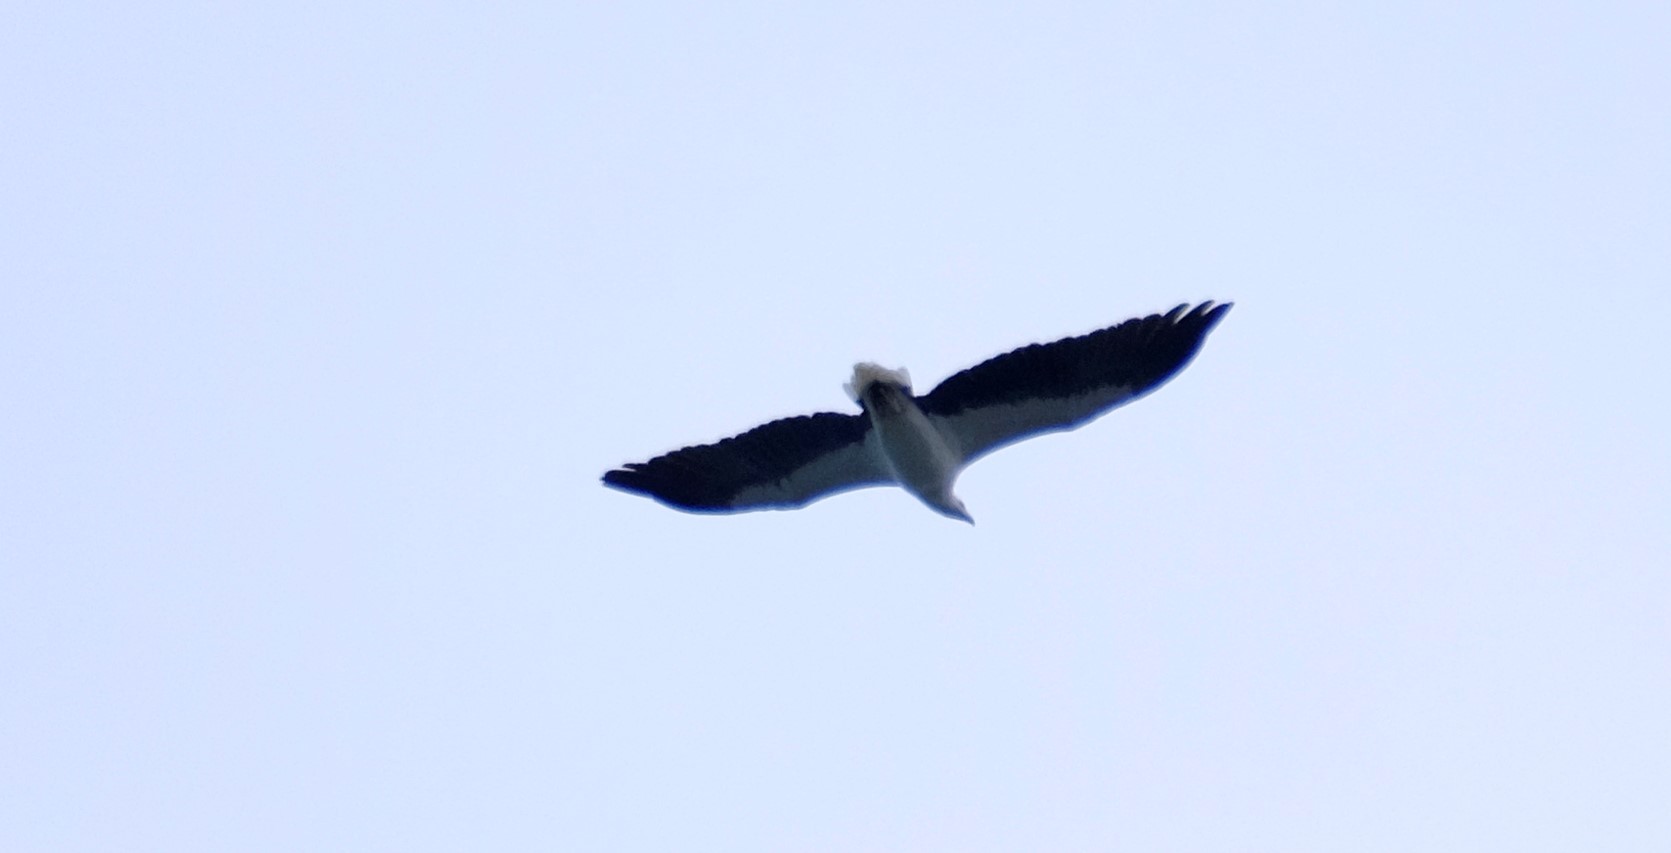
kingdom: Animalia
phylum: Chordata
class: Aves
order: Accipitriformes
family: Accipitridae
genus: Haliaeetus
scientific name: Haliaeetus leucogaster
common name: White-bellied sea eagle
